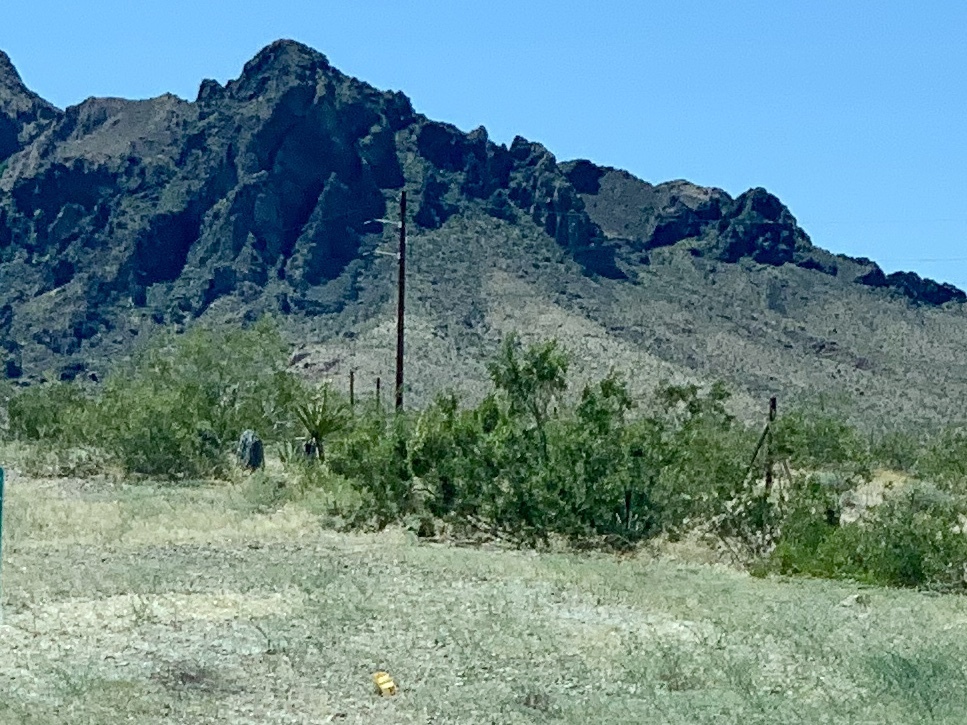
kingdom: Plantae
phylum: Tracheophyta
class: Magnoliopsida
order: Zygophyllales
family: Zygophyllaceae
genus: Larrea
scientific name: Larrea tridentata
